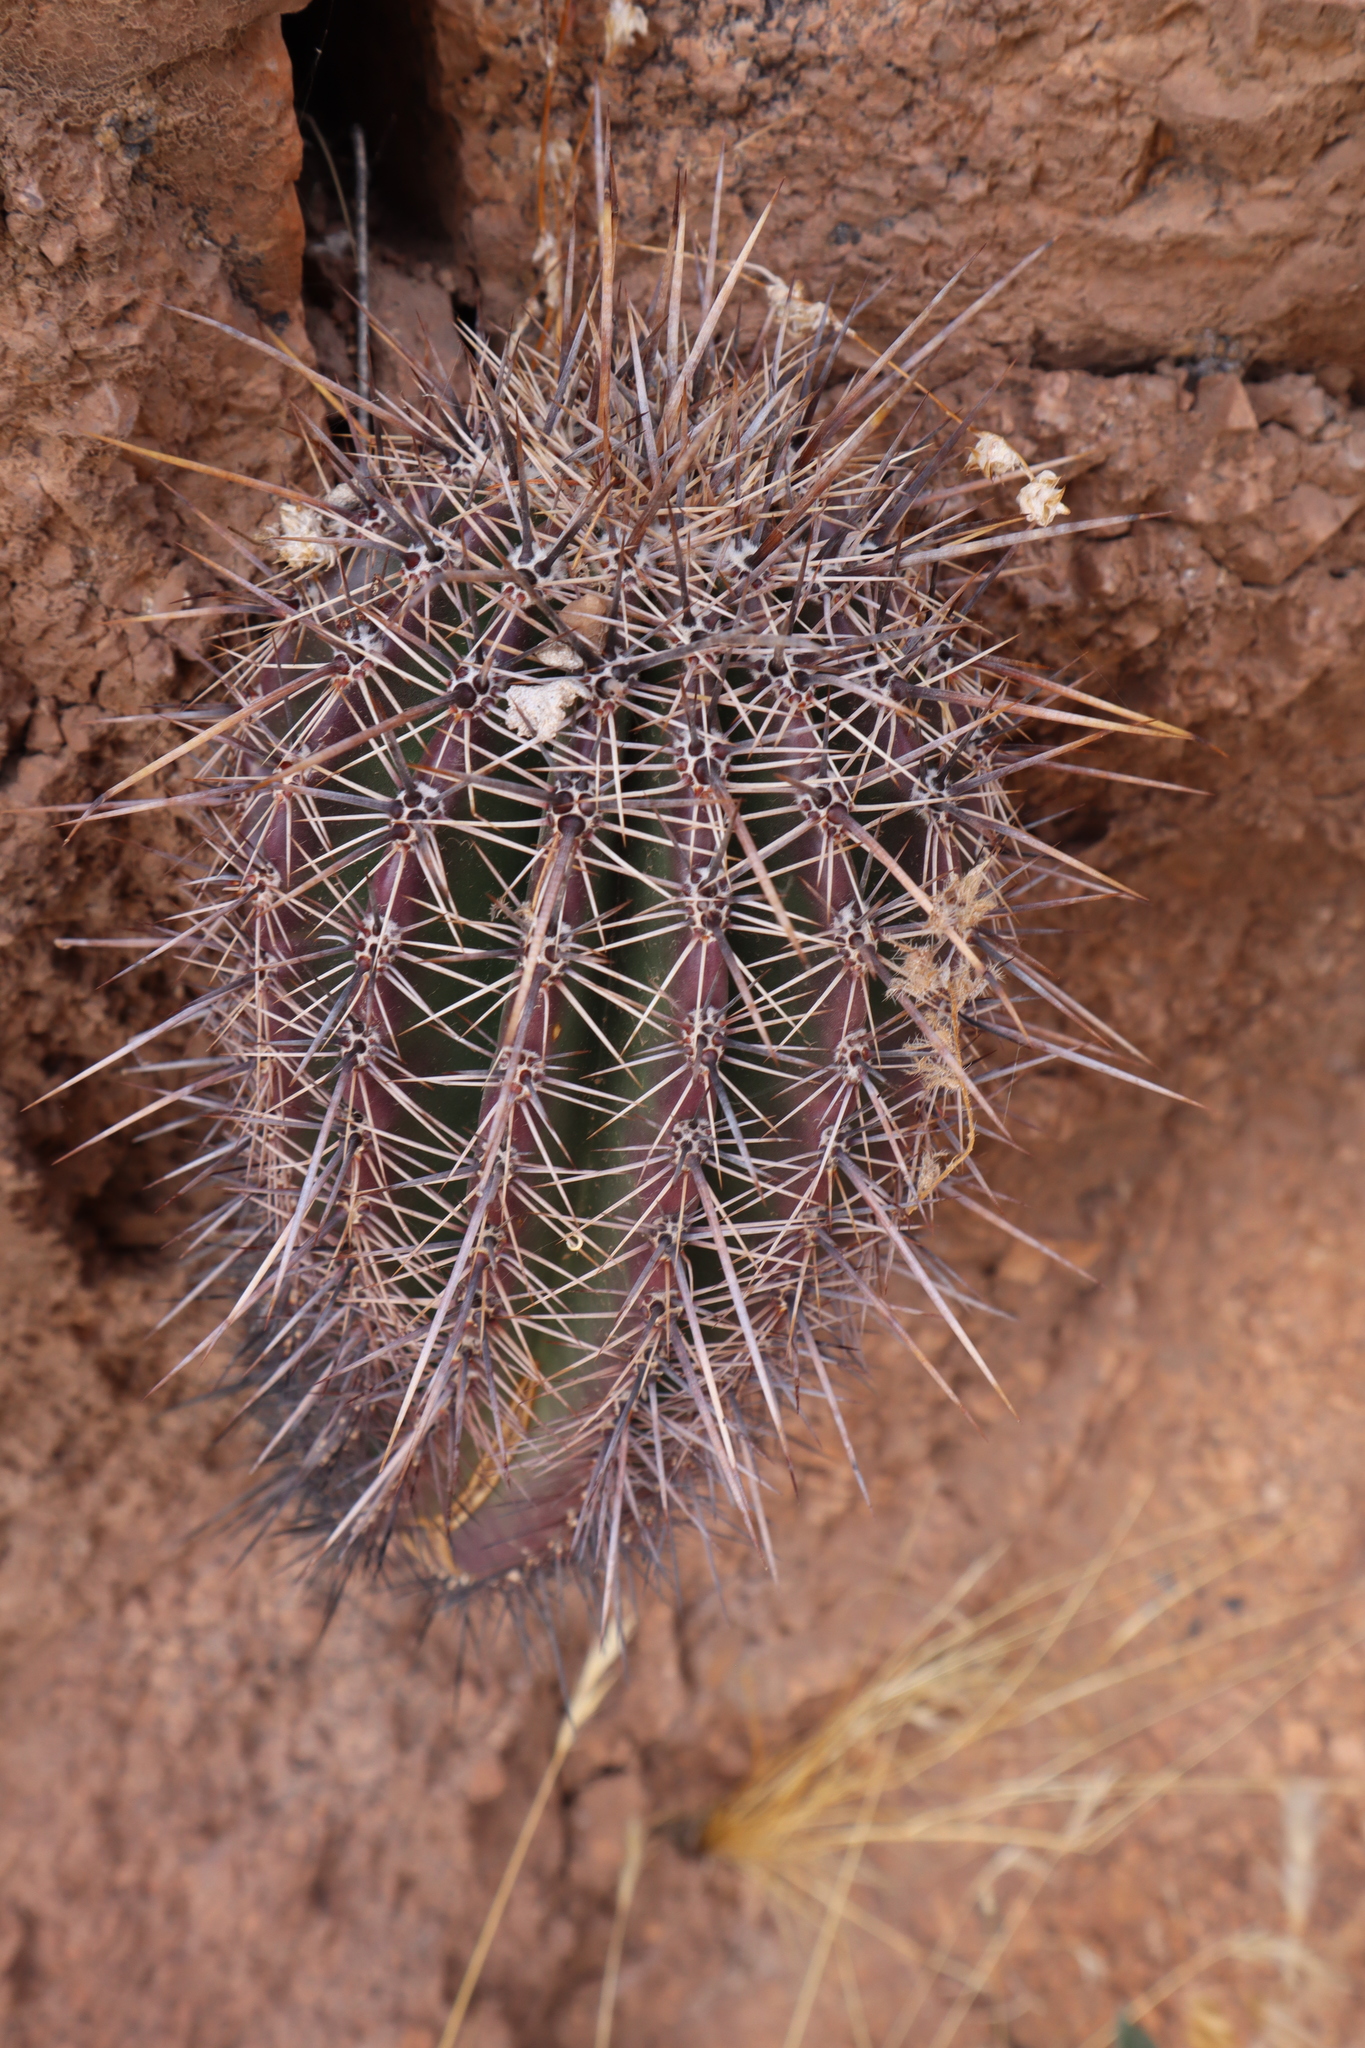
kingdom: Plantae
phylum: Tracheophyta
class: Magnoliopsida
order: Caryophyllales
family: Cactaceae
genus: Carnegiea
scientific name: Carnegiea gigantea
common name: Saguaro
